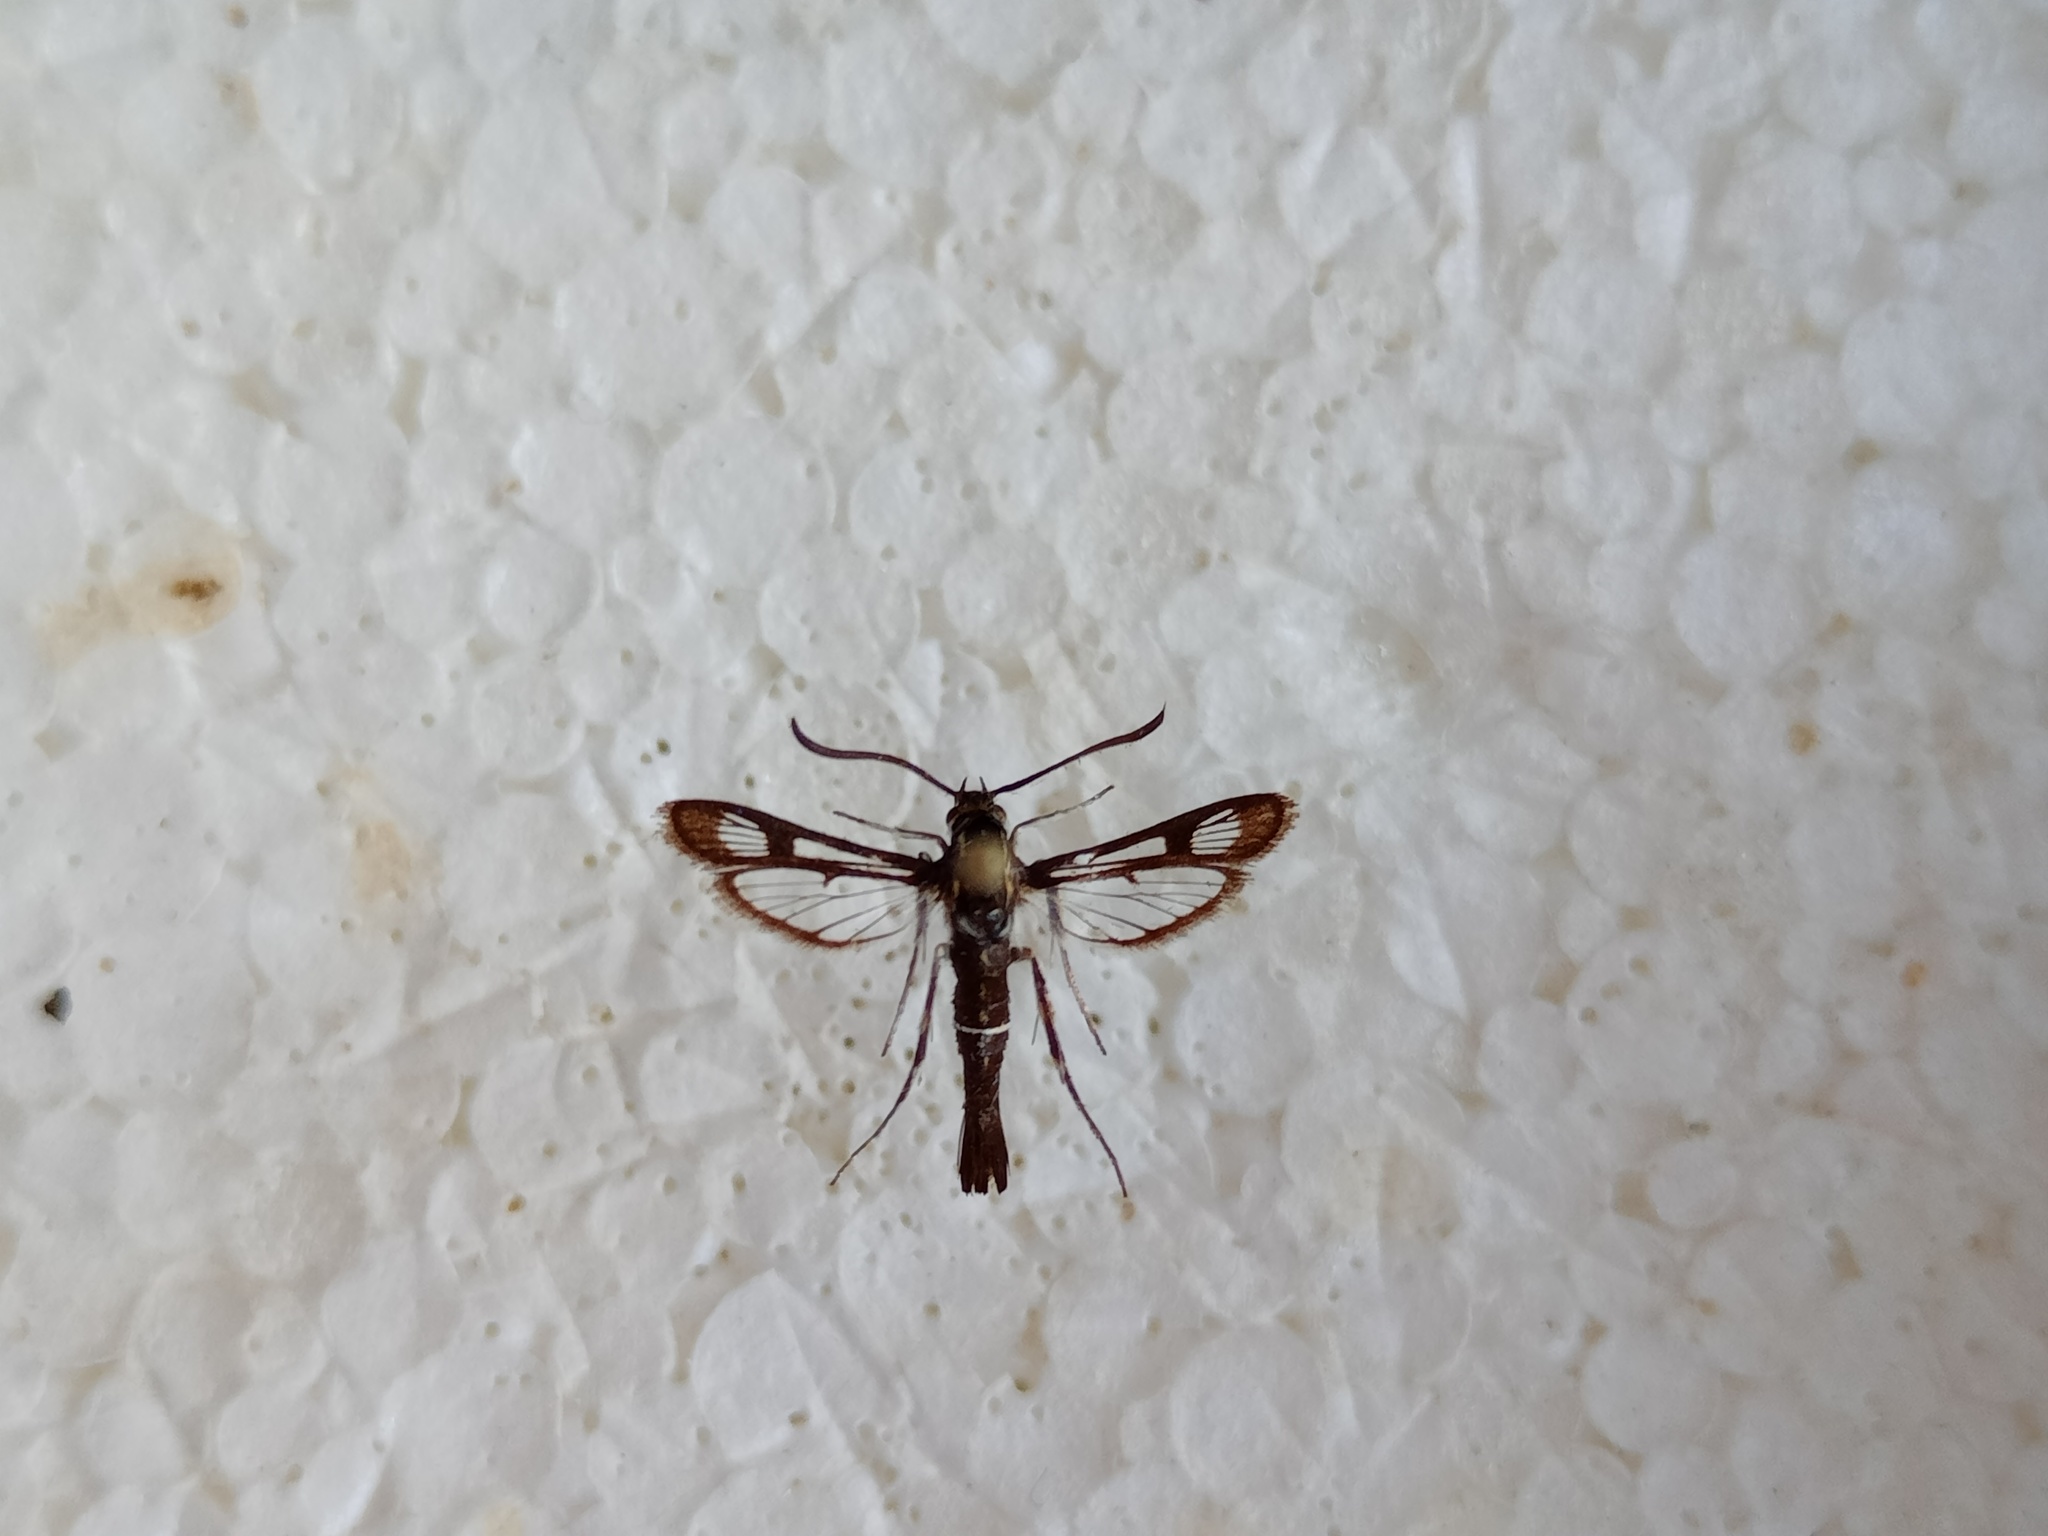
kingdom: Animalia
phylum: Arthropoda
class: Insecta
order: Lepidoptera
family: Sesiidae
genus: Pyropteron
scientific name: Pyropteron leucomelaena
